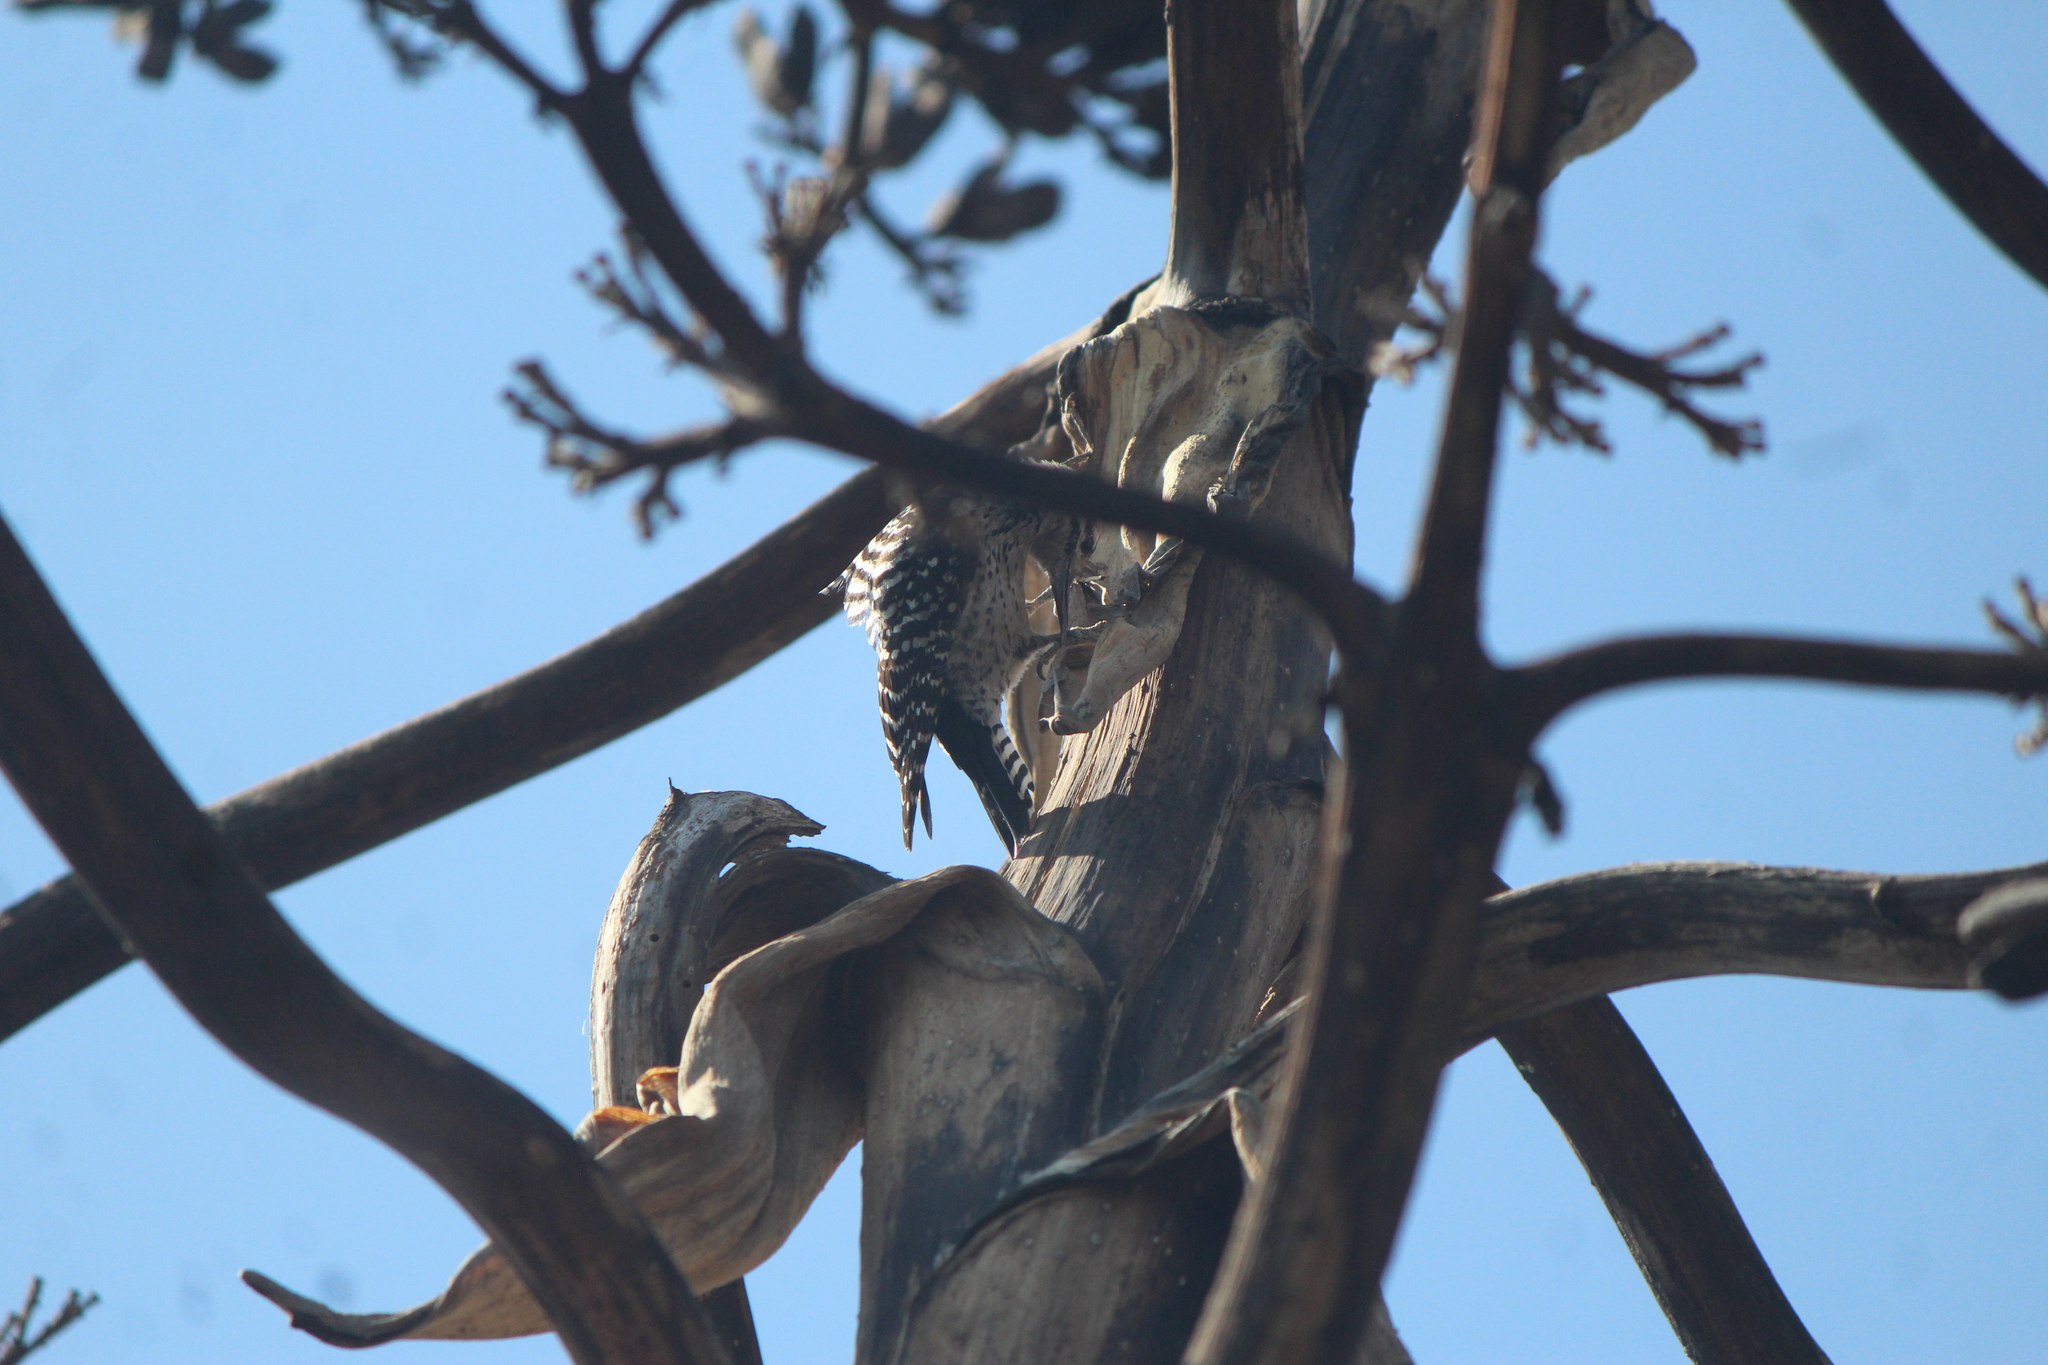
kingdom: Animalia
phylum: Chordata
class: Aves
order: Piciformes
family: Picidae
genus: Dryobates
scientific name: Dryobates scalaris
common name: Ladder-backed woodpecker
